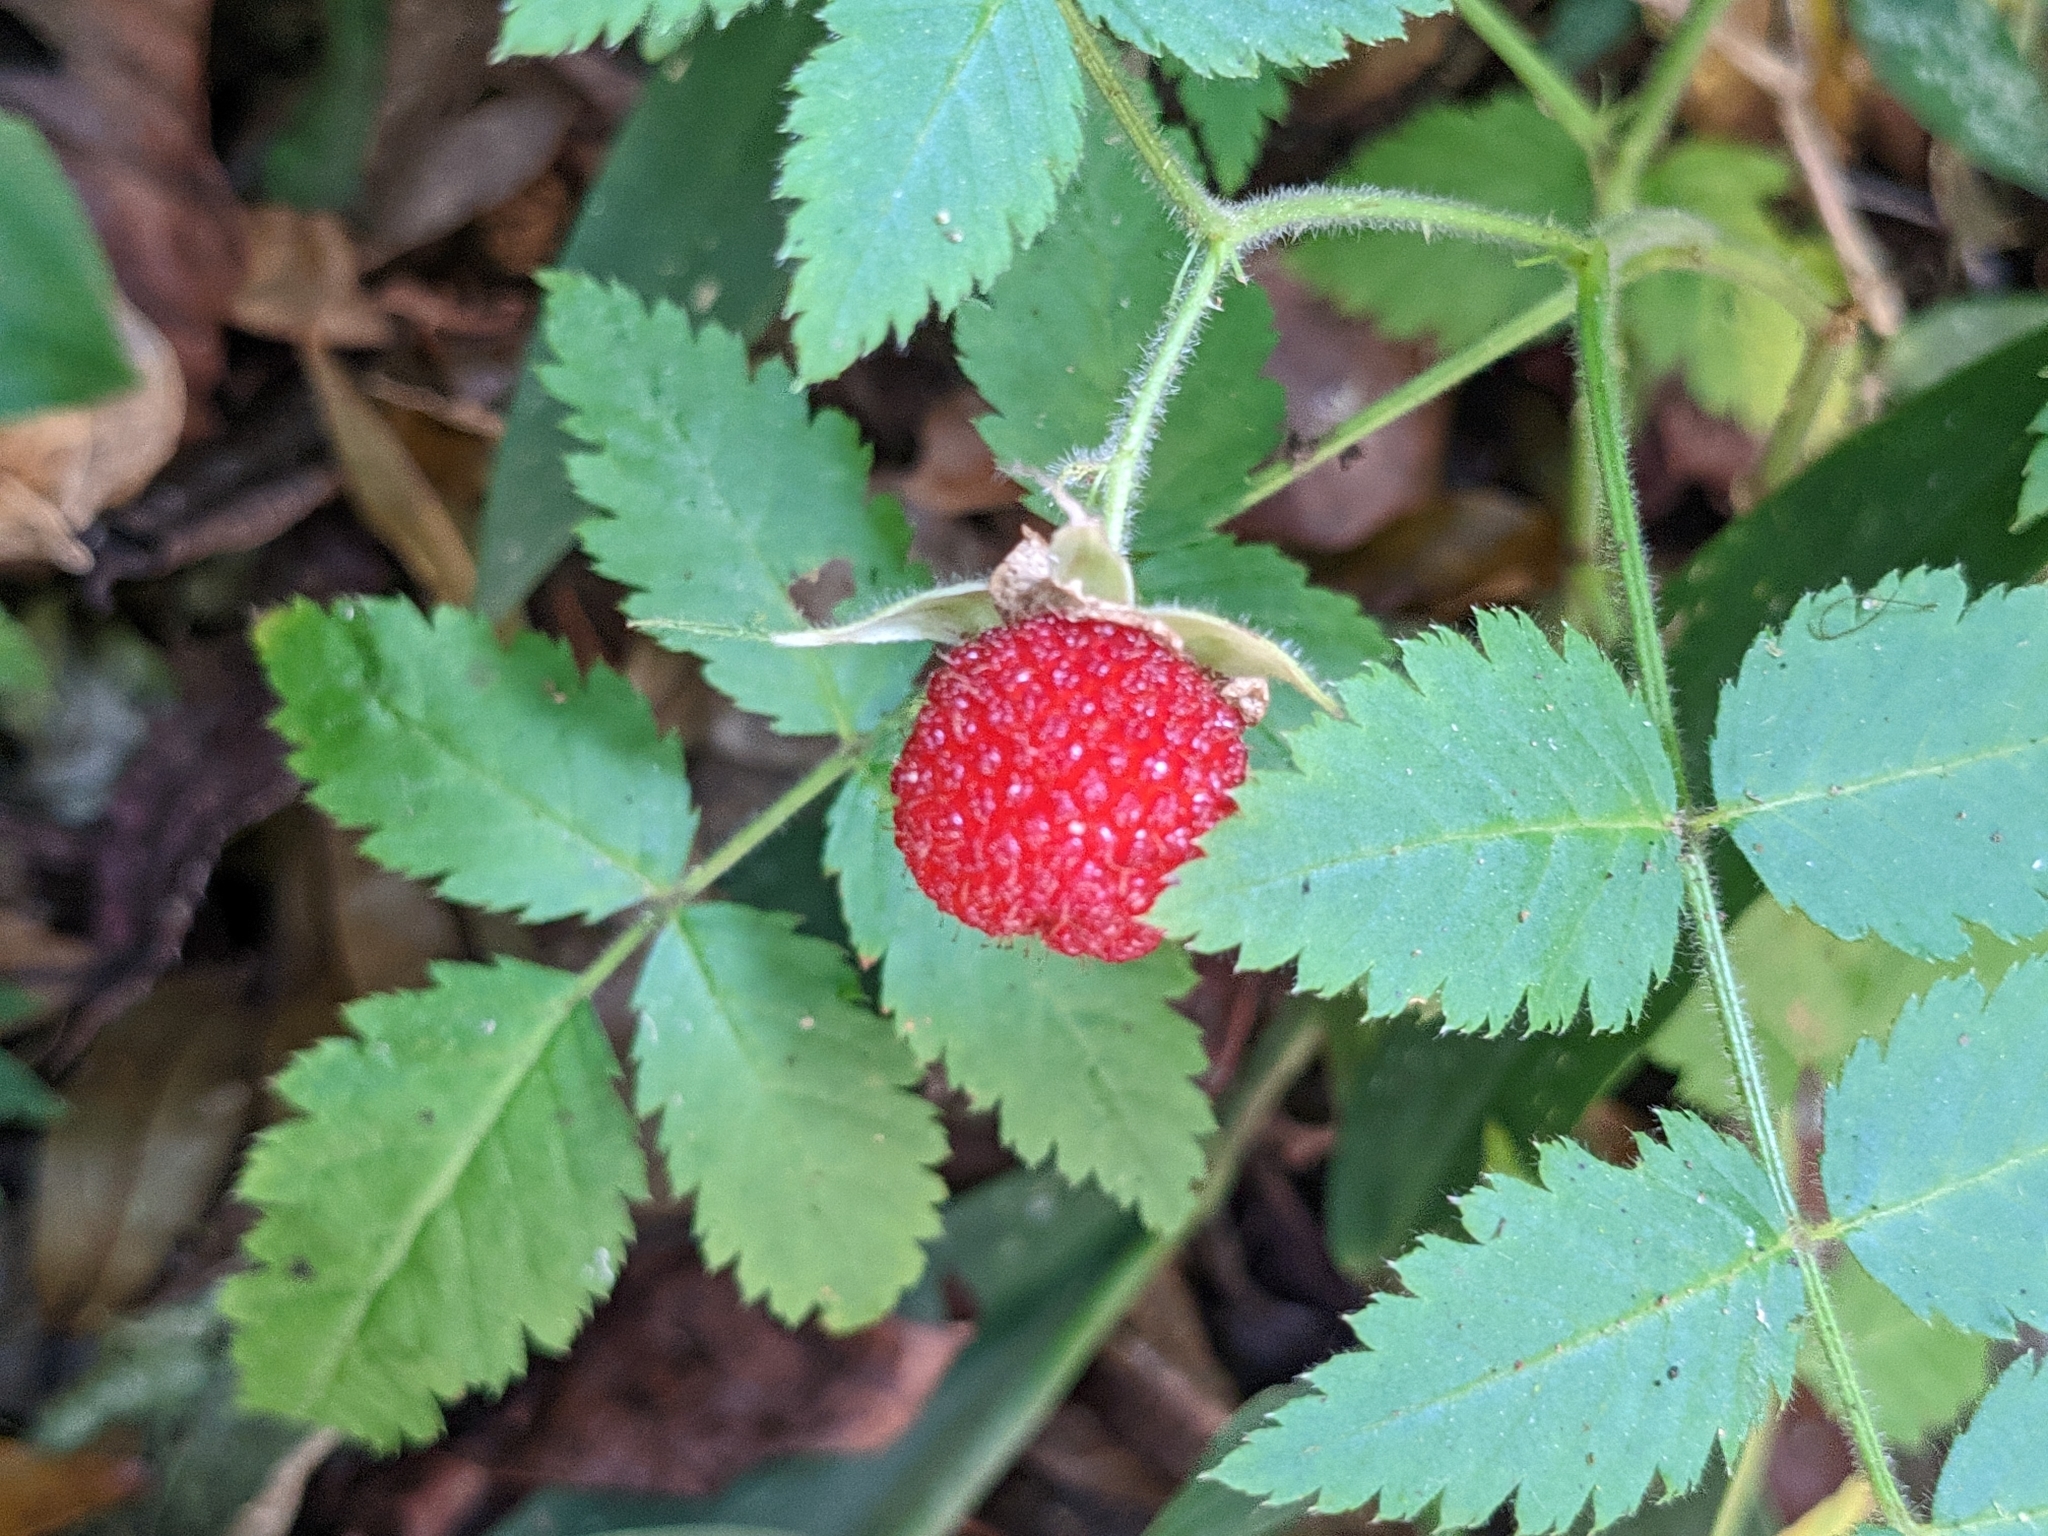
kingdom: Plantae
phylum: Tracheophyta
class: Magnoliopsida
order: Rosales
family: Rosaceae
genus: Rubus
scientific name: Rubus rosifolius
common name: Roseleaf raspberry
